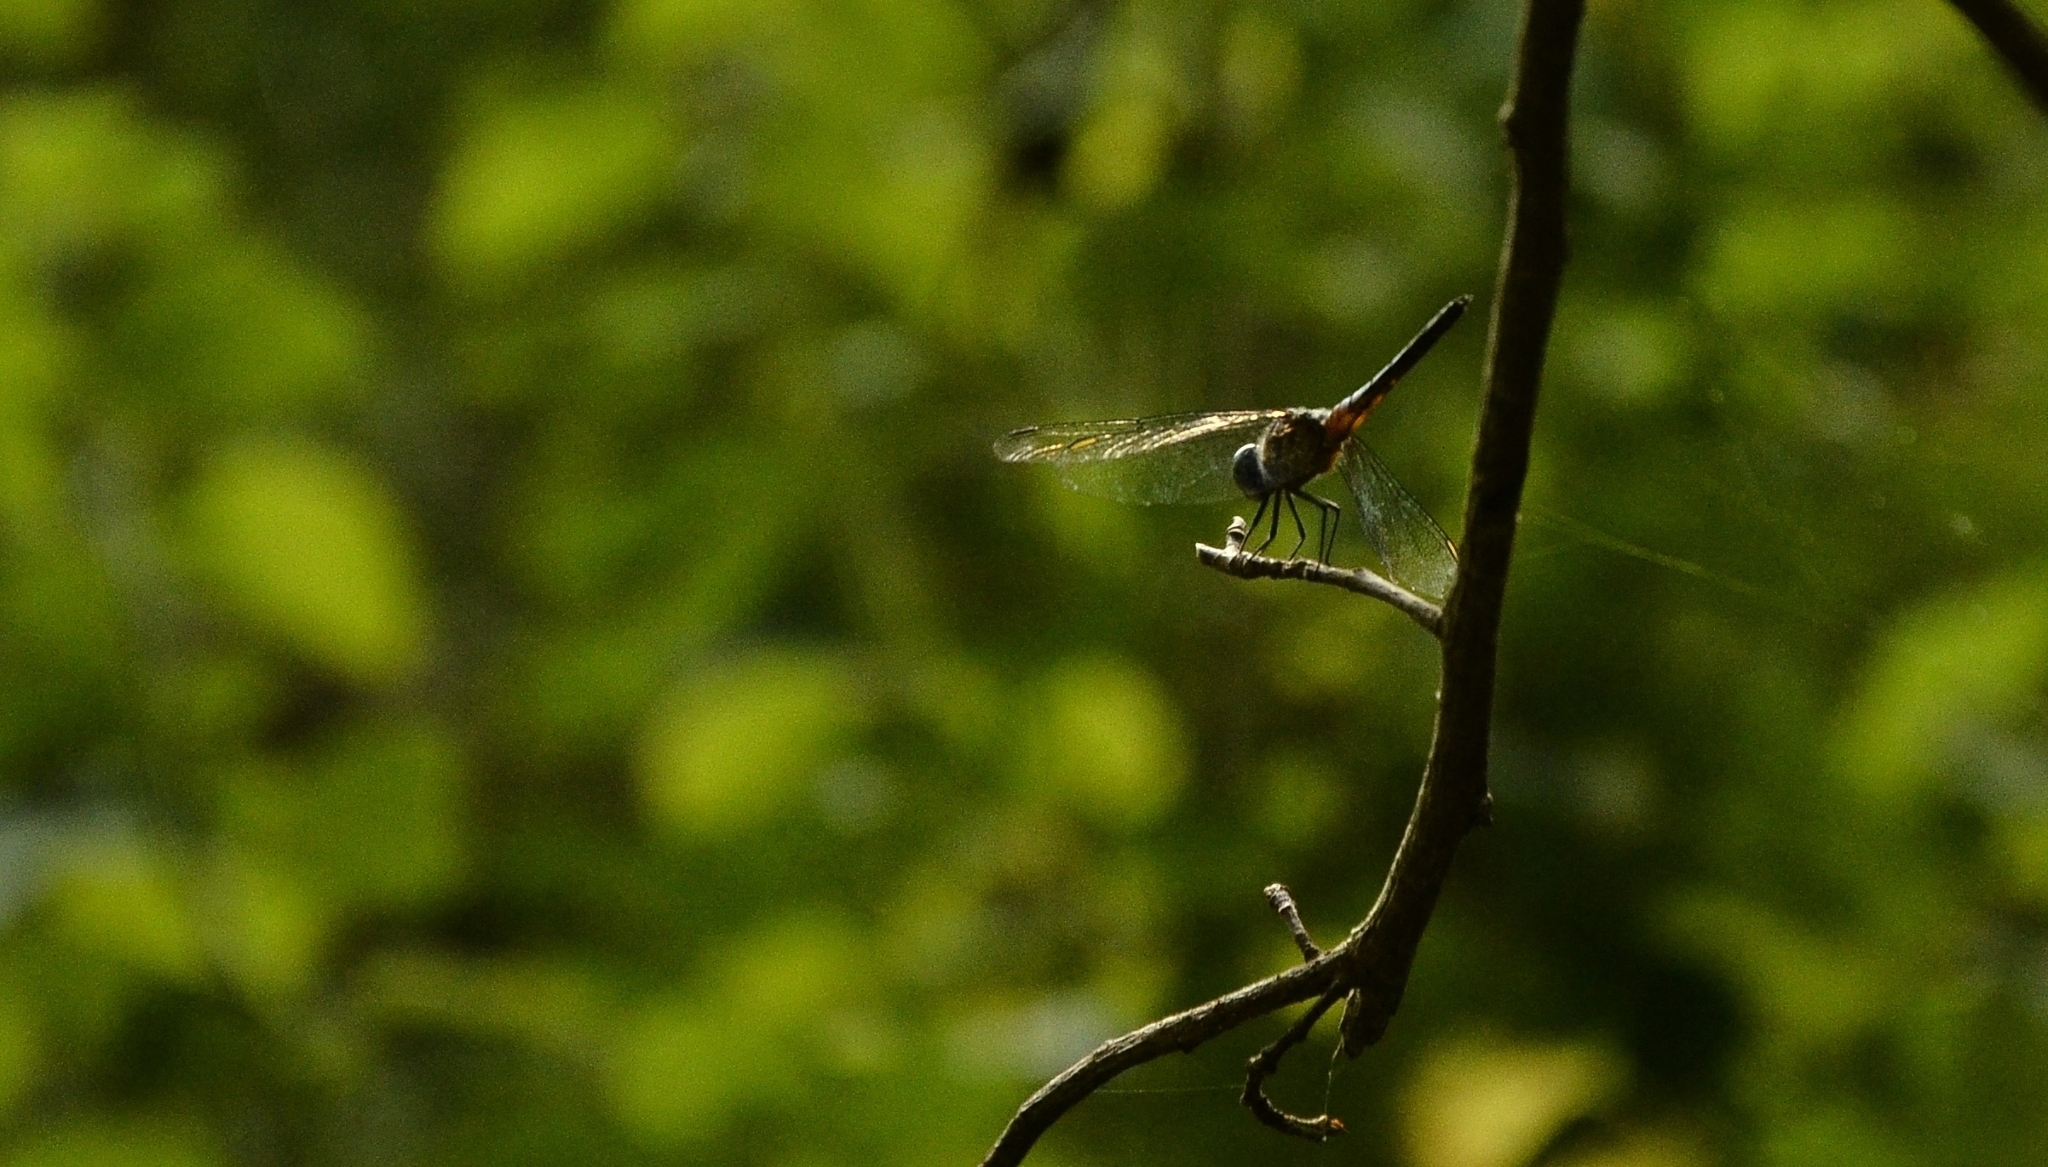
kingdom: Animalia
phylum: Arthropoda
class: Insecta
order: Odonata
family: Libellulidae
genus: Brachydiplax
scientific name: Brachydiplax chalybea
